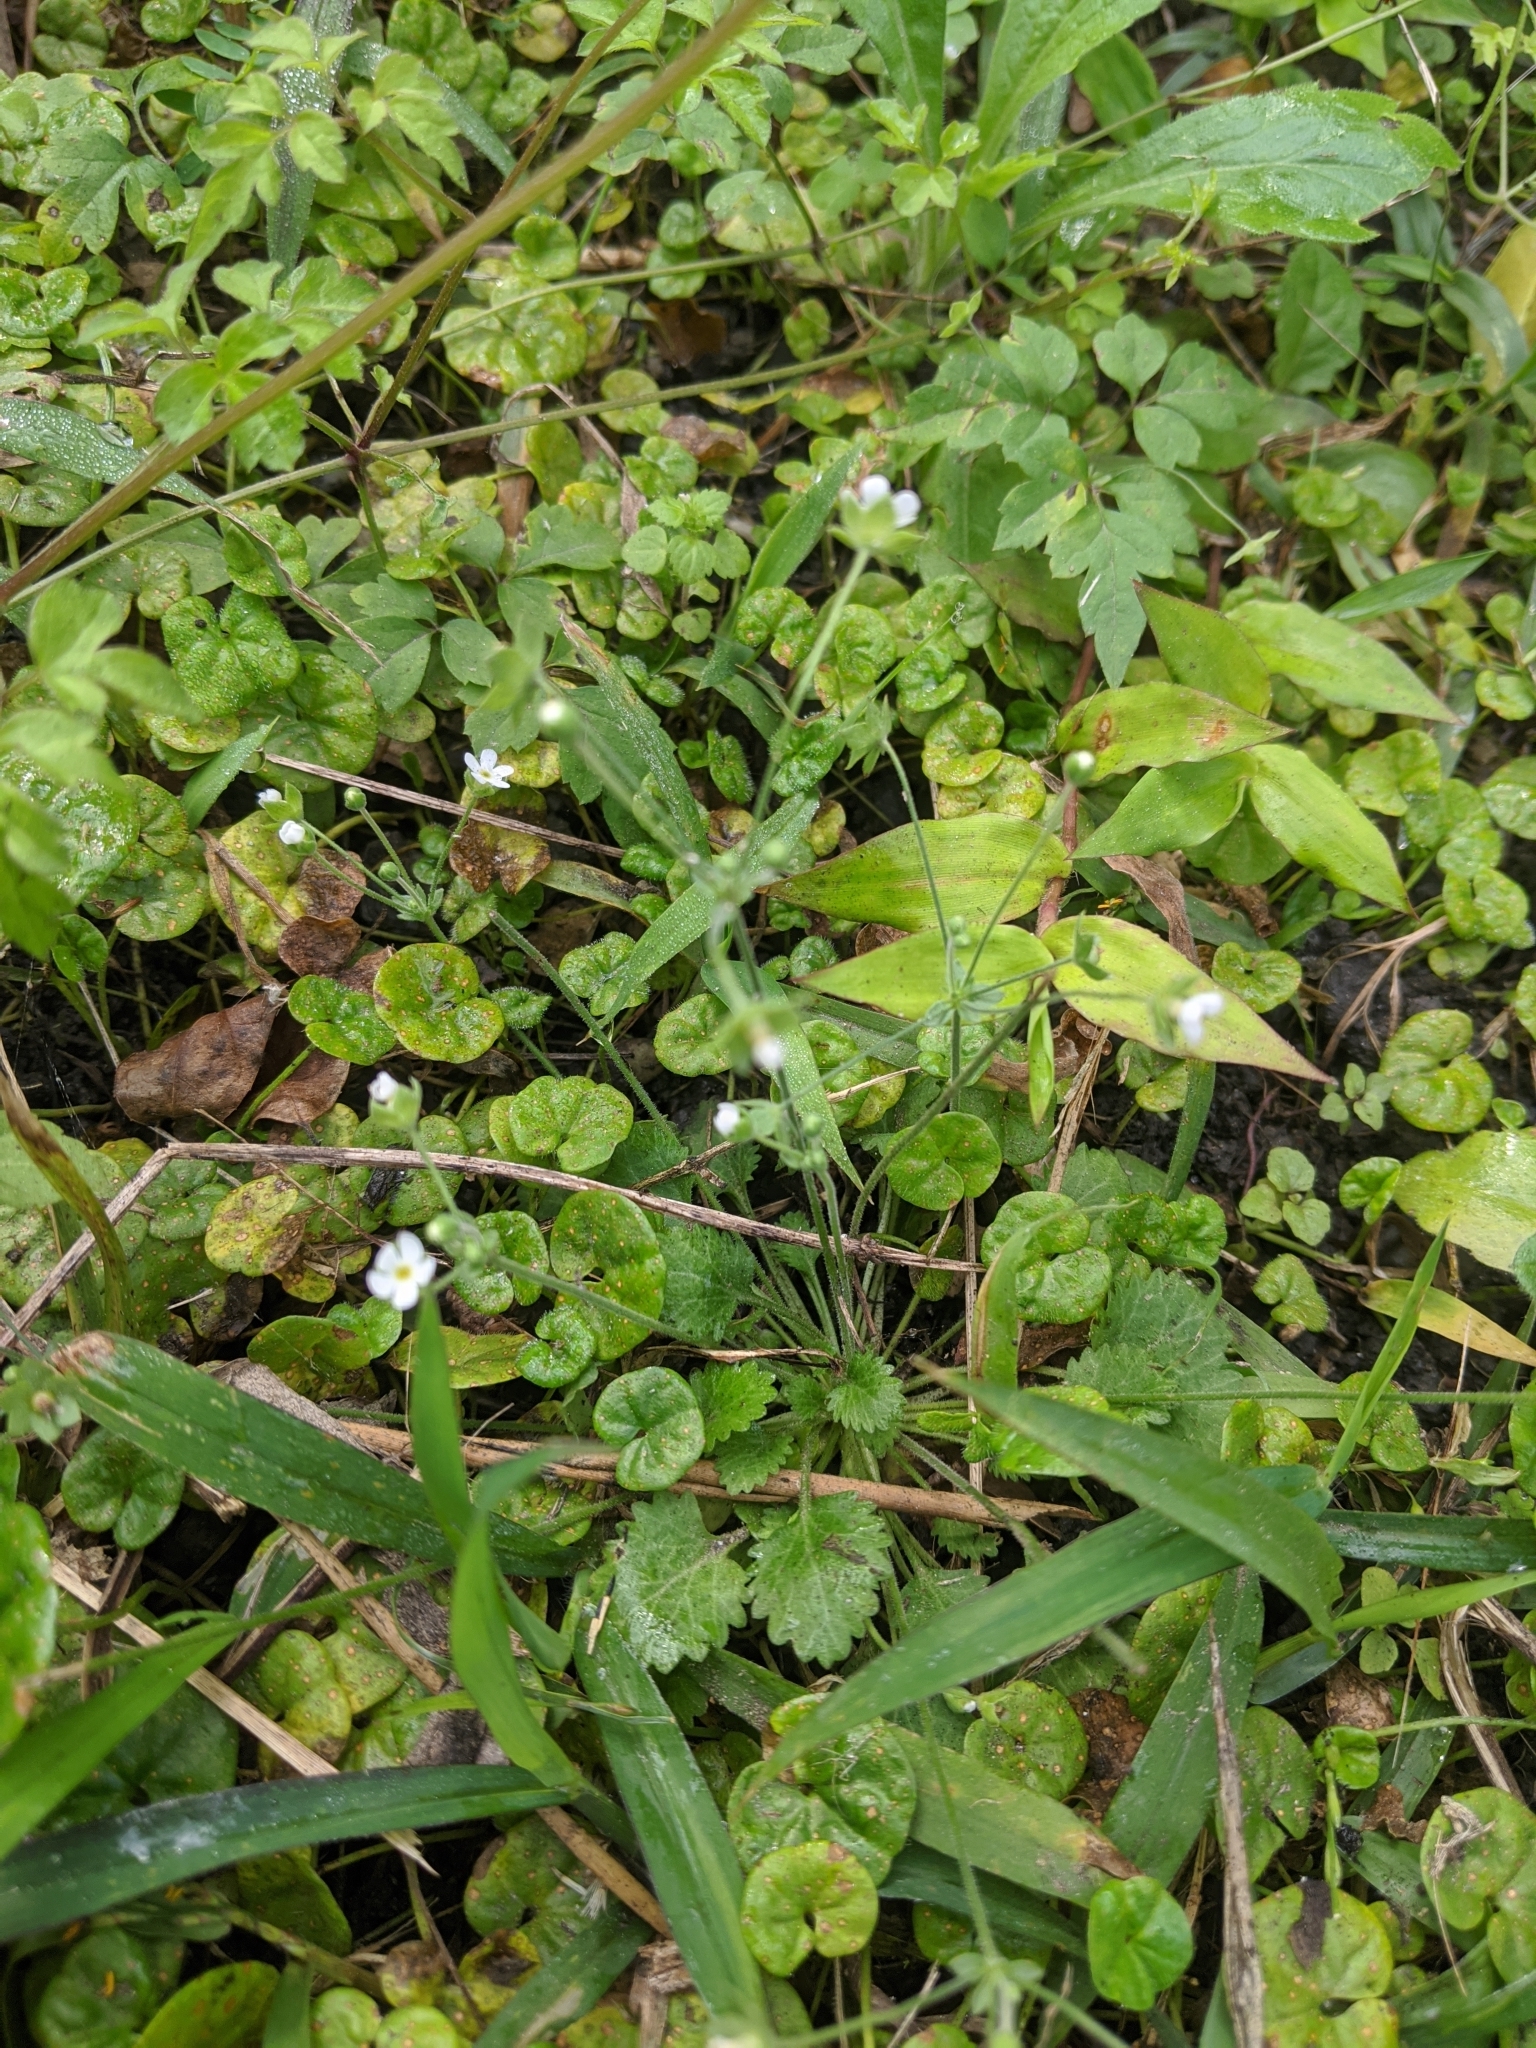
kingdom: Plantae
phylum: Tracheophyta
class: Magnoliopsida
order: Ericales
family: Primulaceae
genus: Androsace
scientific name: Androsace umbellata
